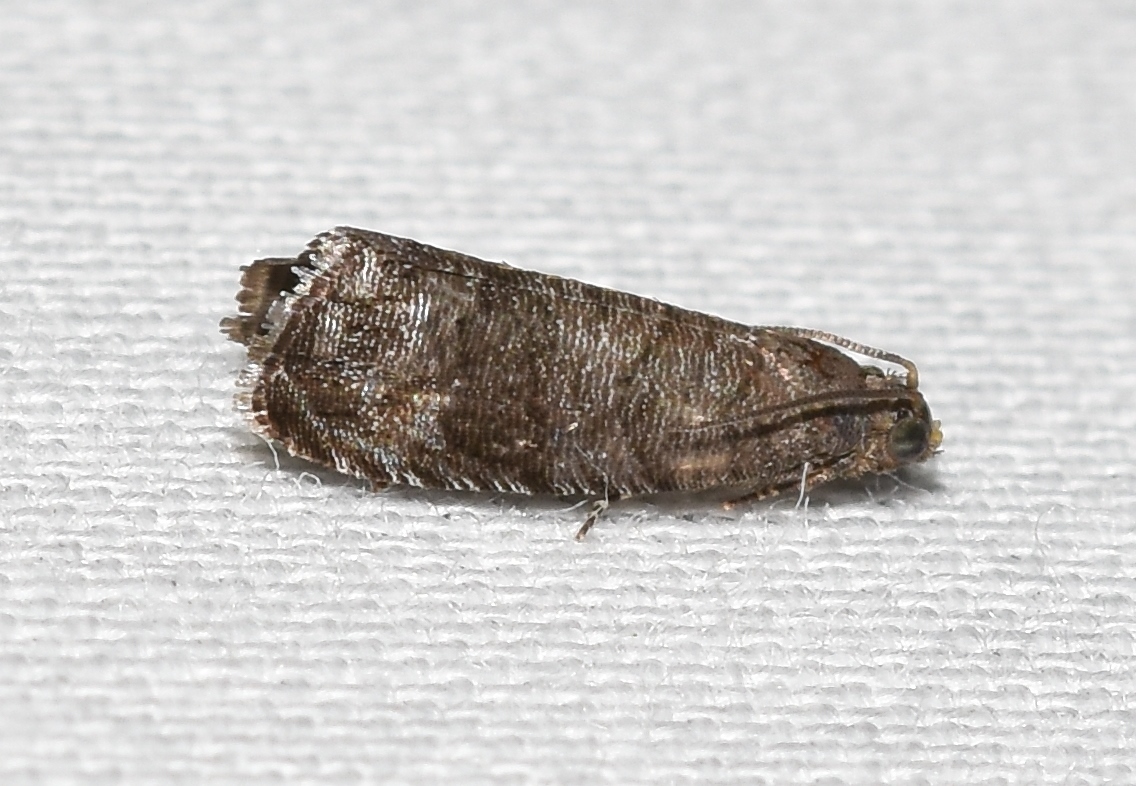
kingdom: Animalia
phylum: Arthropoda
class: Insecta
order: Lepidoptera
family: Noctuidae
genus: Aspila
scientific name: Aspila
